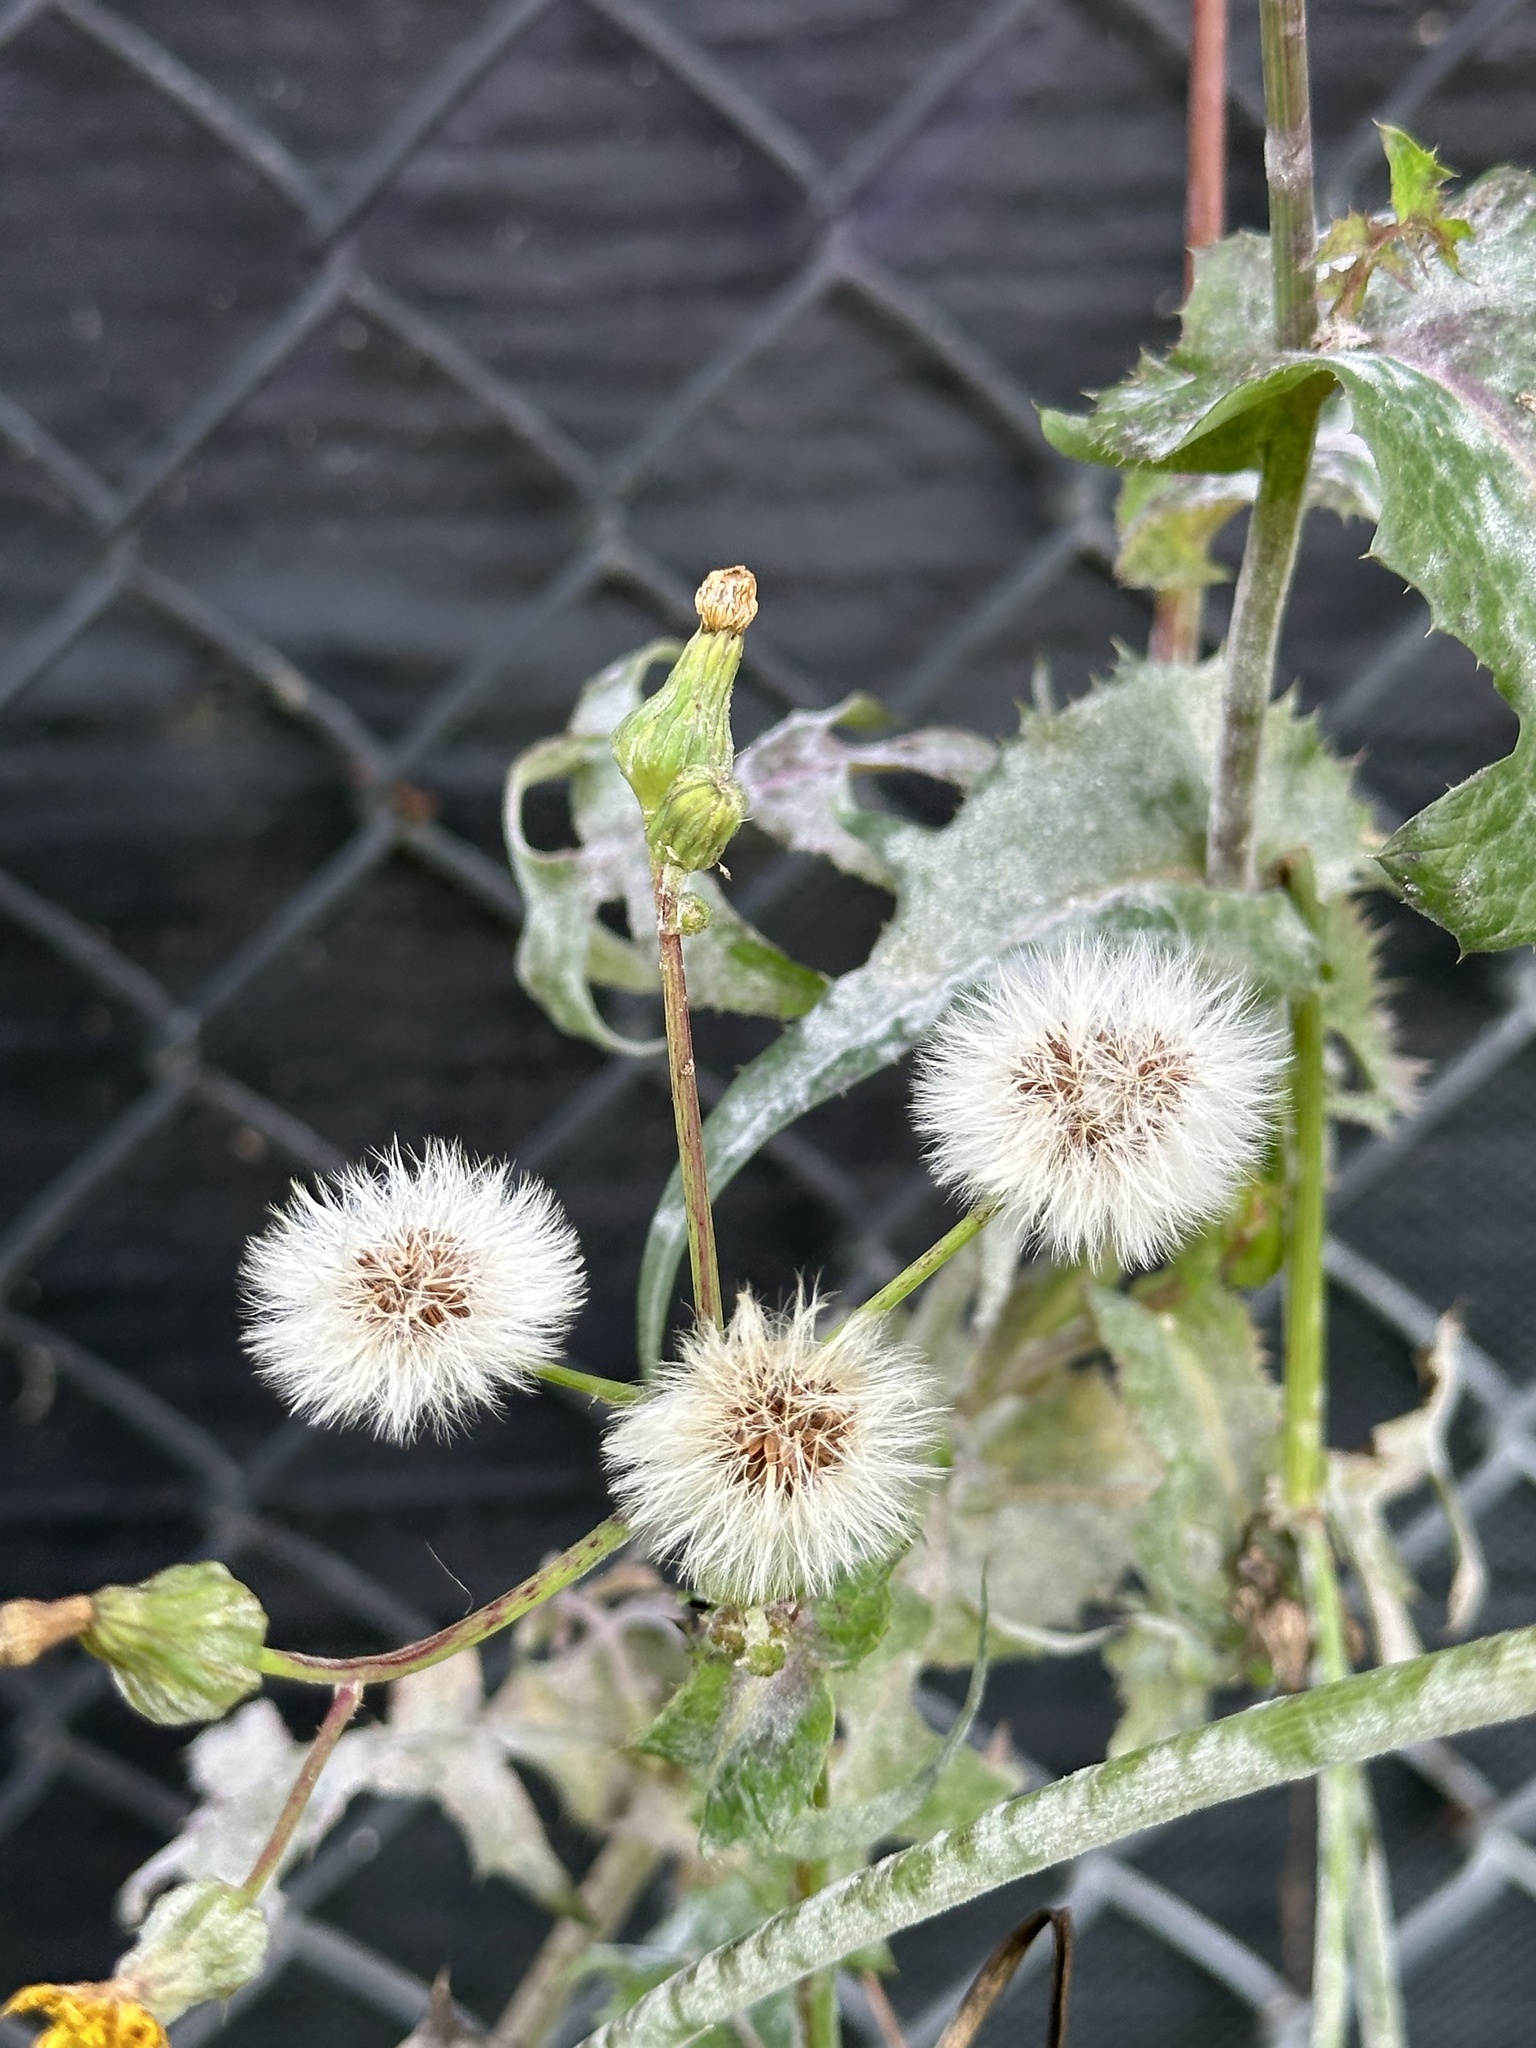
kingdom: Plantae
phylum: Tracheophyta
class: Magnoliopsida
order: Asterales
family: Asteraceae
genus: Sonchus
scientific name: Sonchus asper
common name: Prickly sow-thistle
